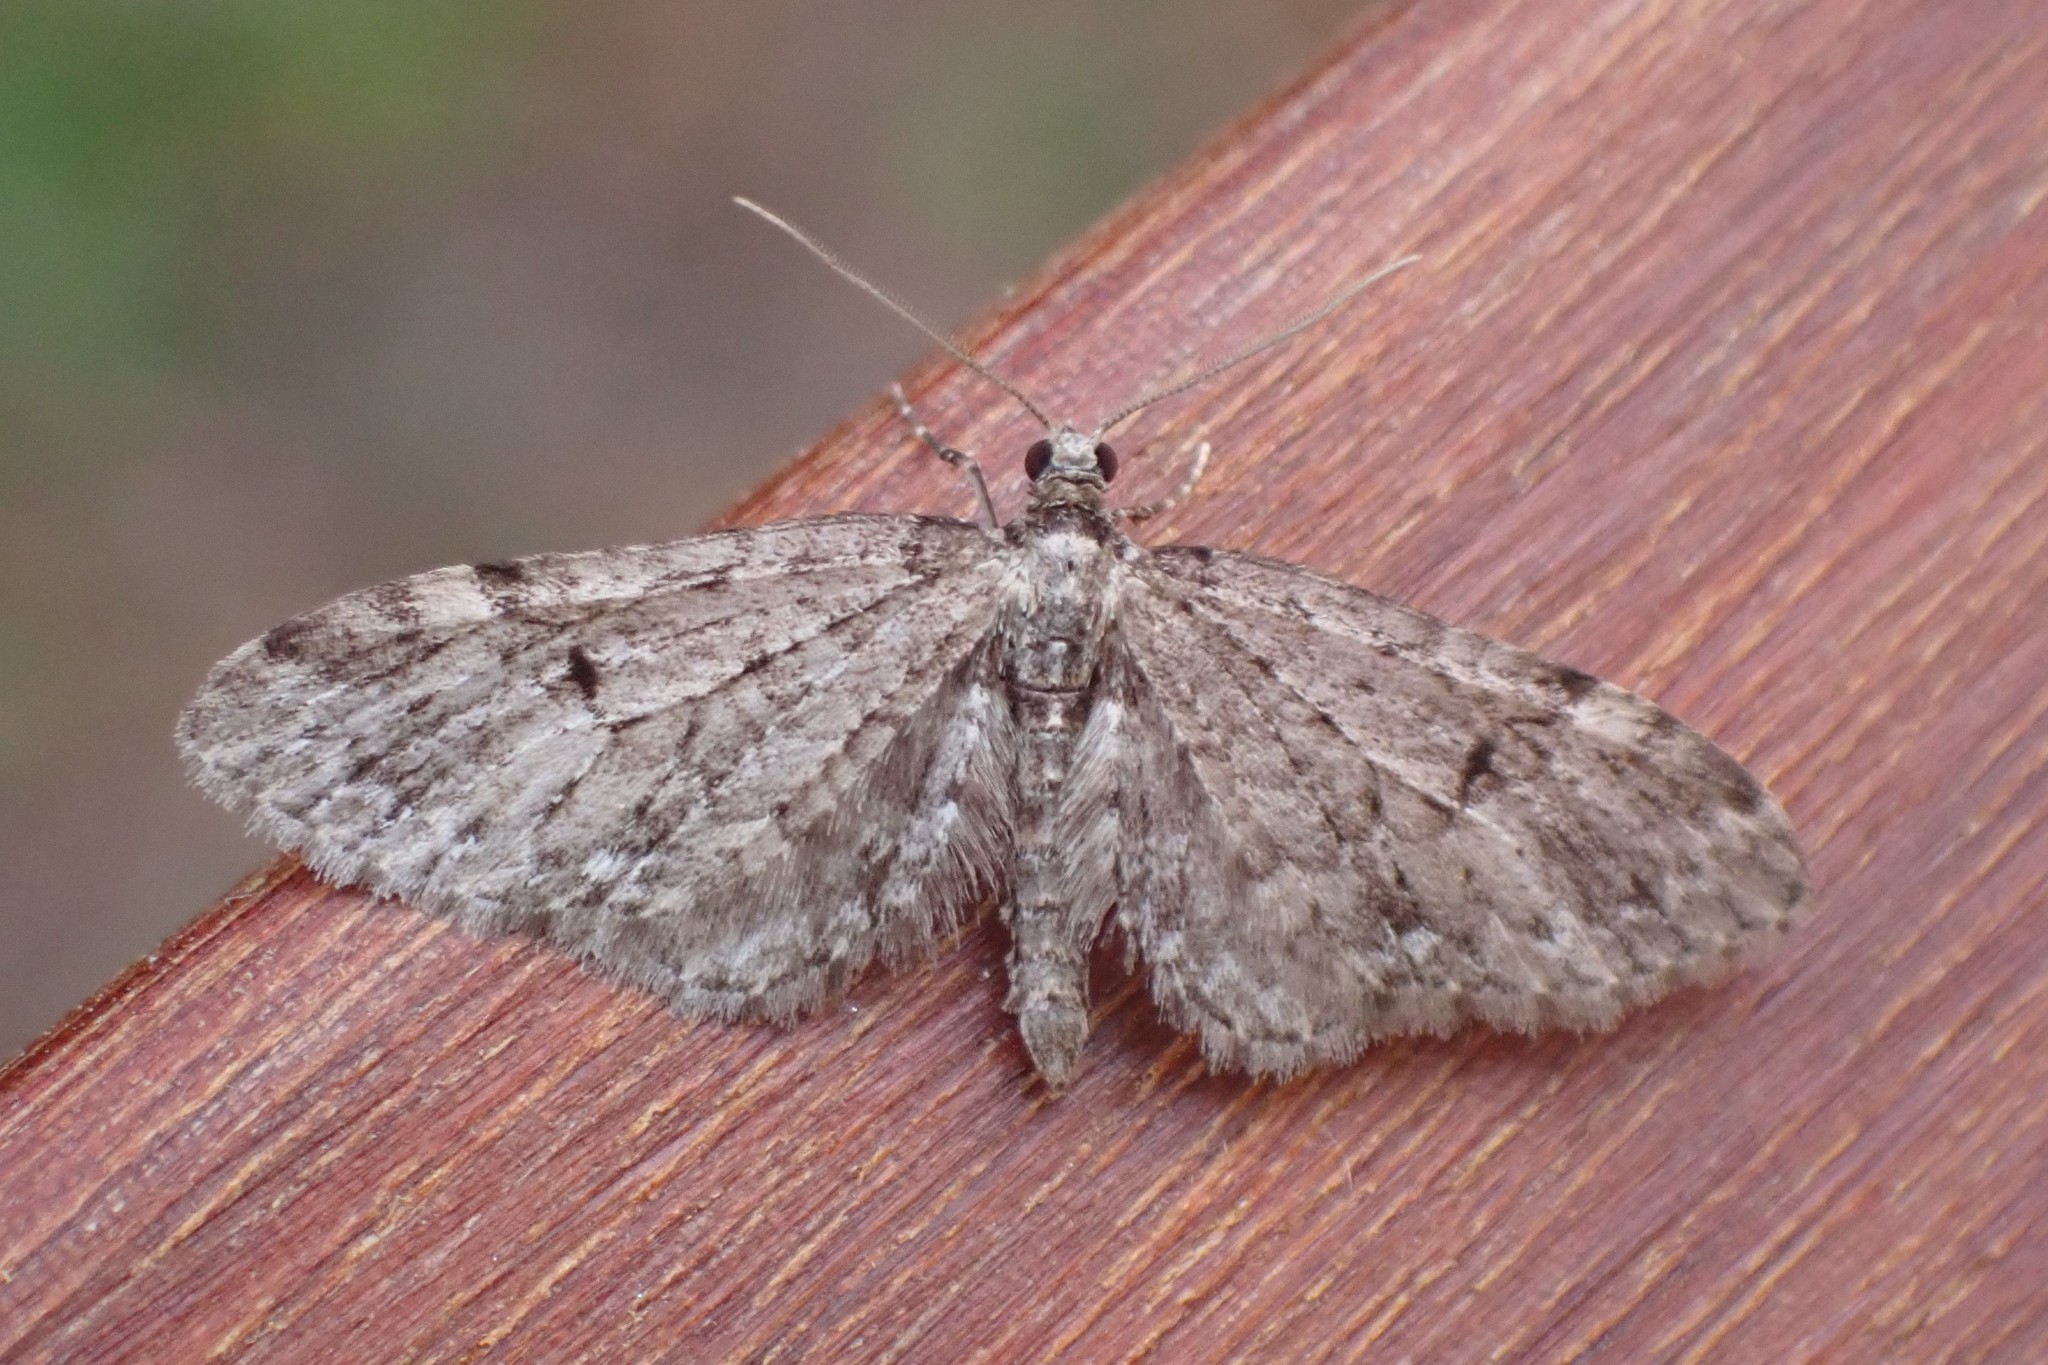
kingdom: Animalia
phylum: Arthropoda
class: Insecta
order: Lepidoptera
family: Geometridae
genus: Eupithecia
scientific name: Eupithecia annulata
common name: Larch pug moth
